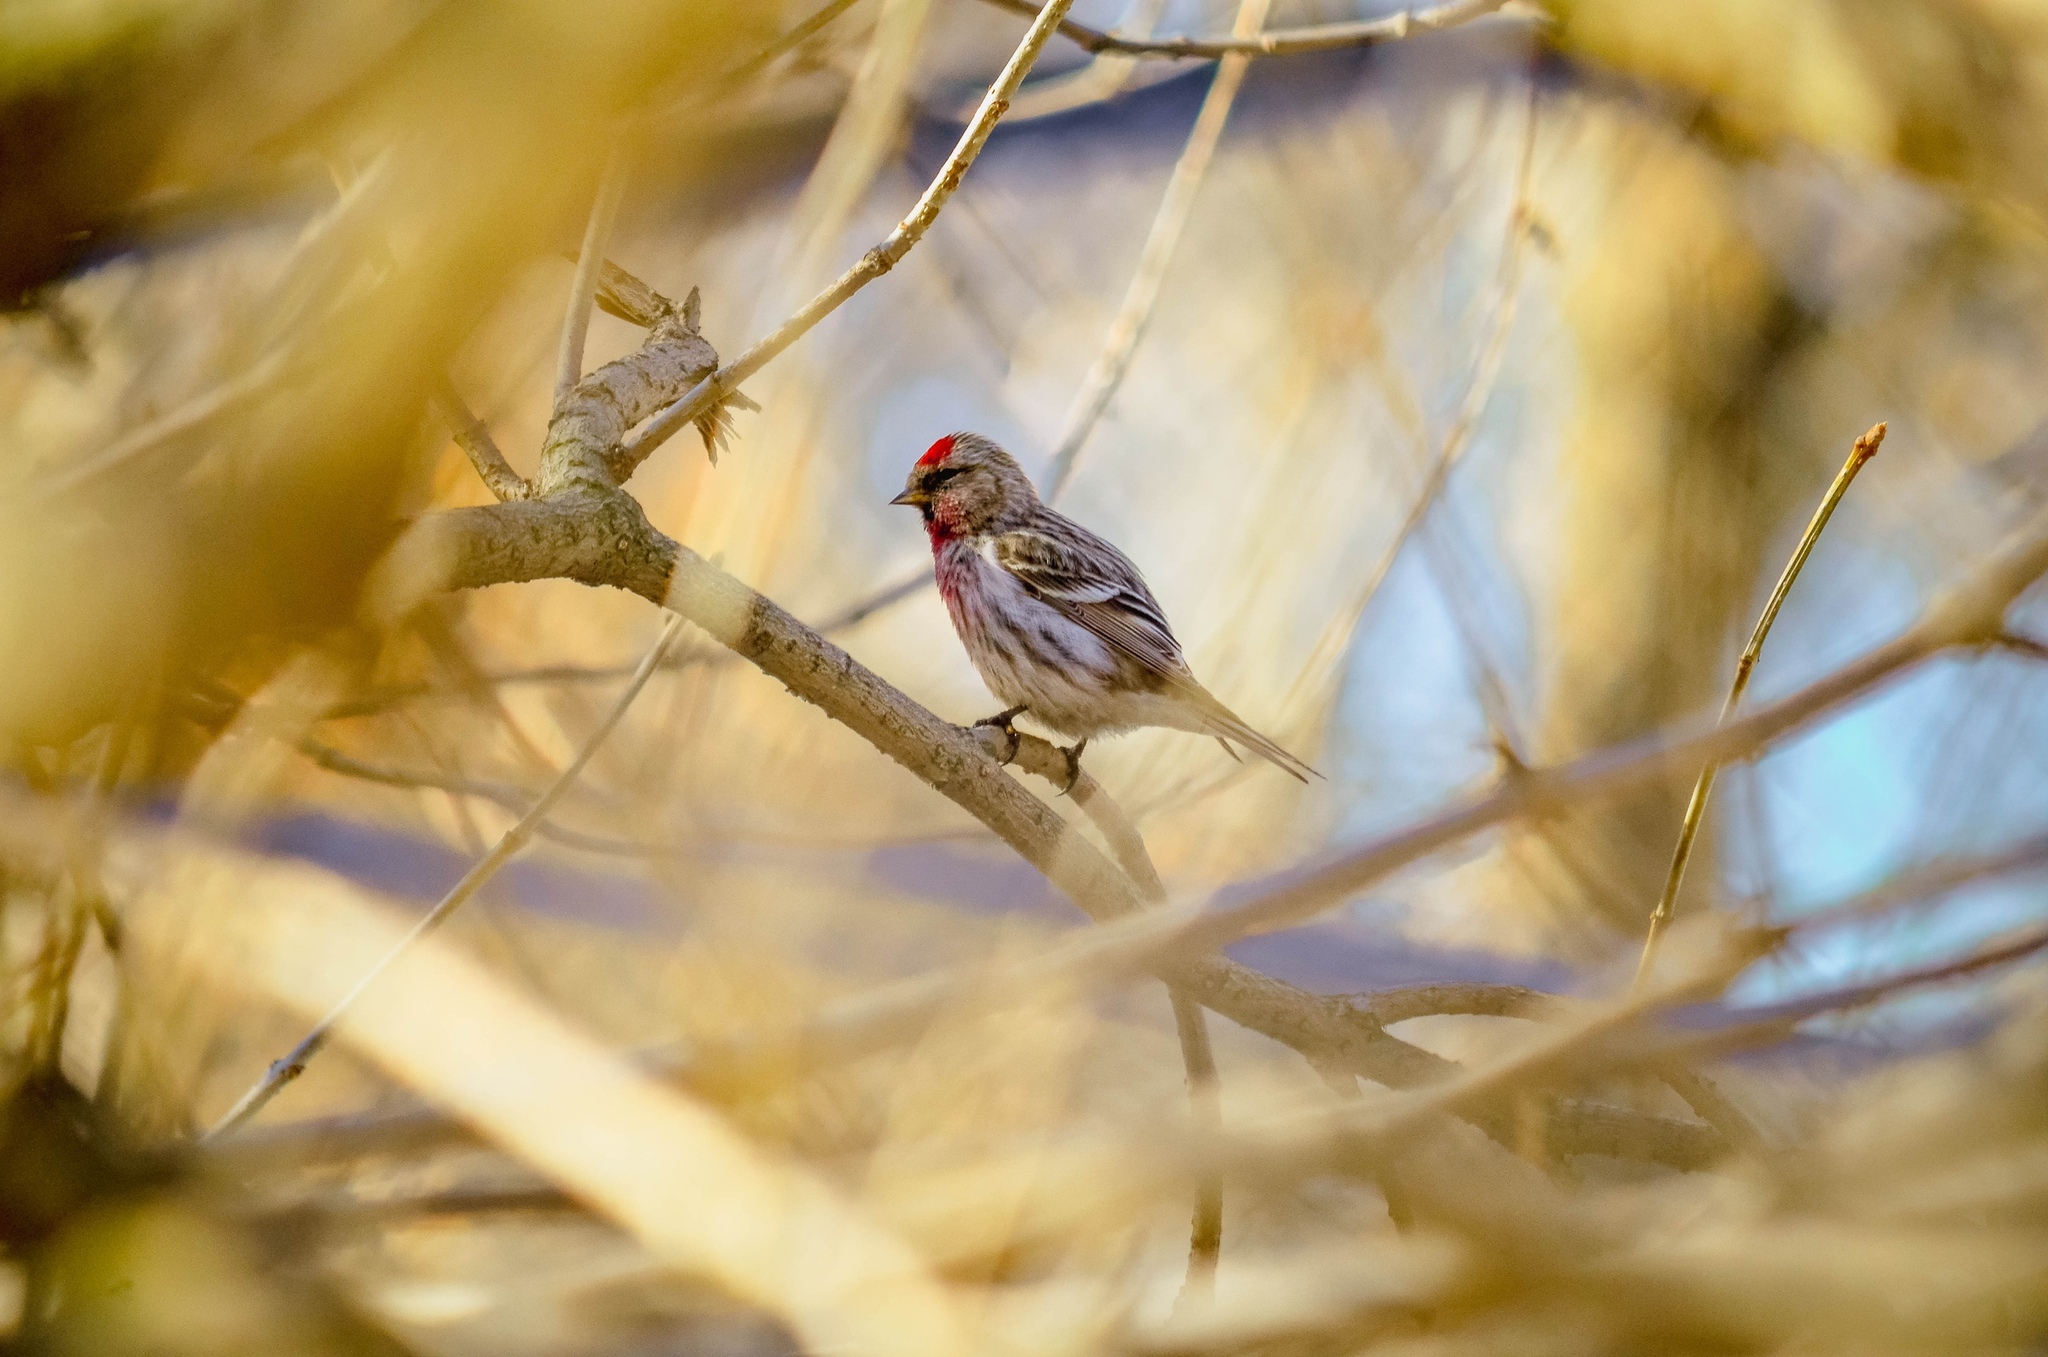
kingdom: Animalia
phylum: Chordata
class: Aves
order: Passeriformes
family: Fringillidae
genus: Acanthis
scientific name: Acanthis flammea
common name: Common redpoll
